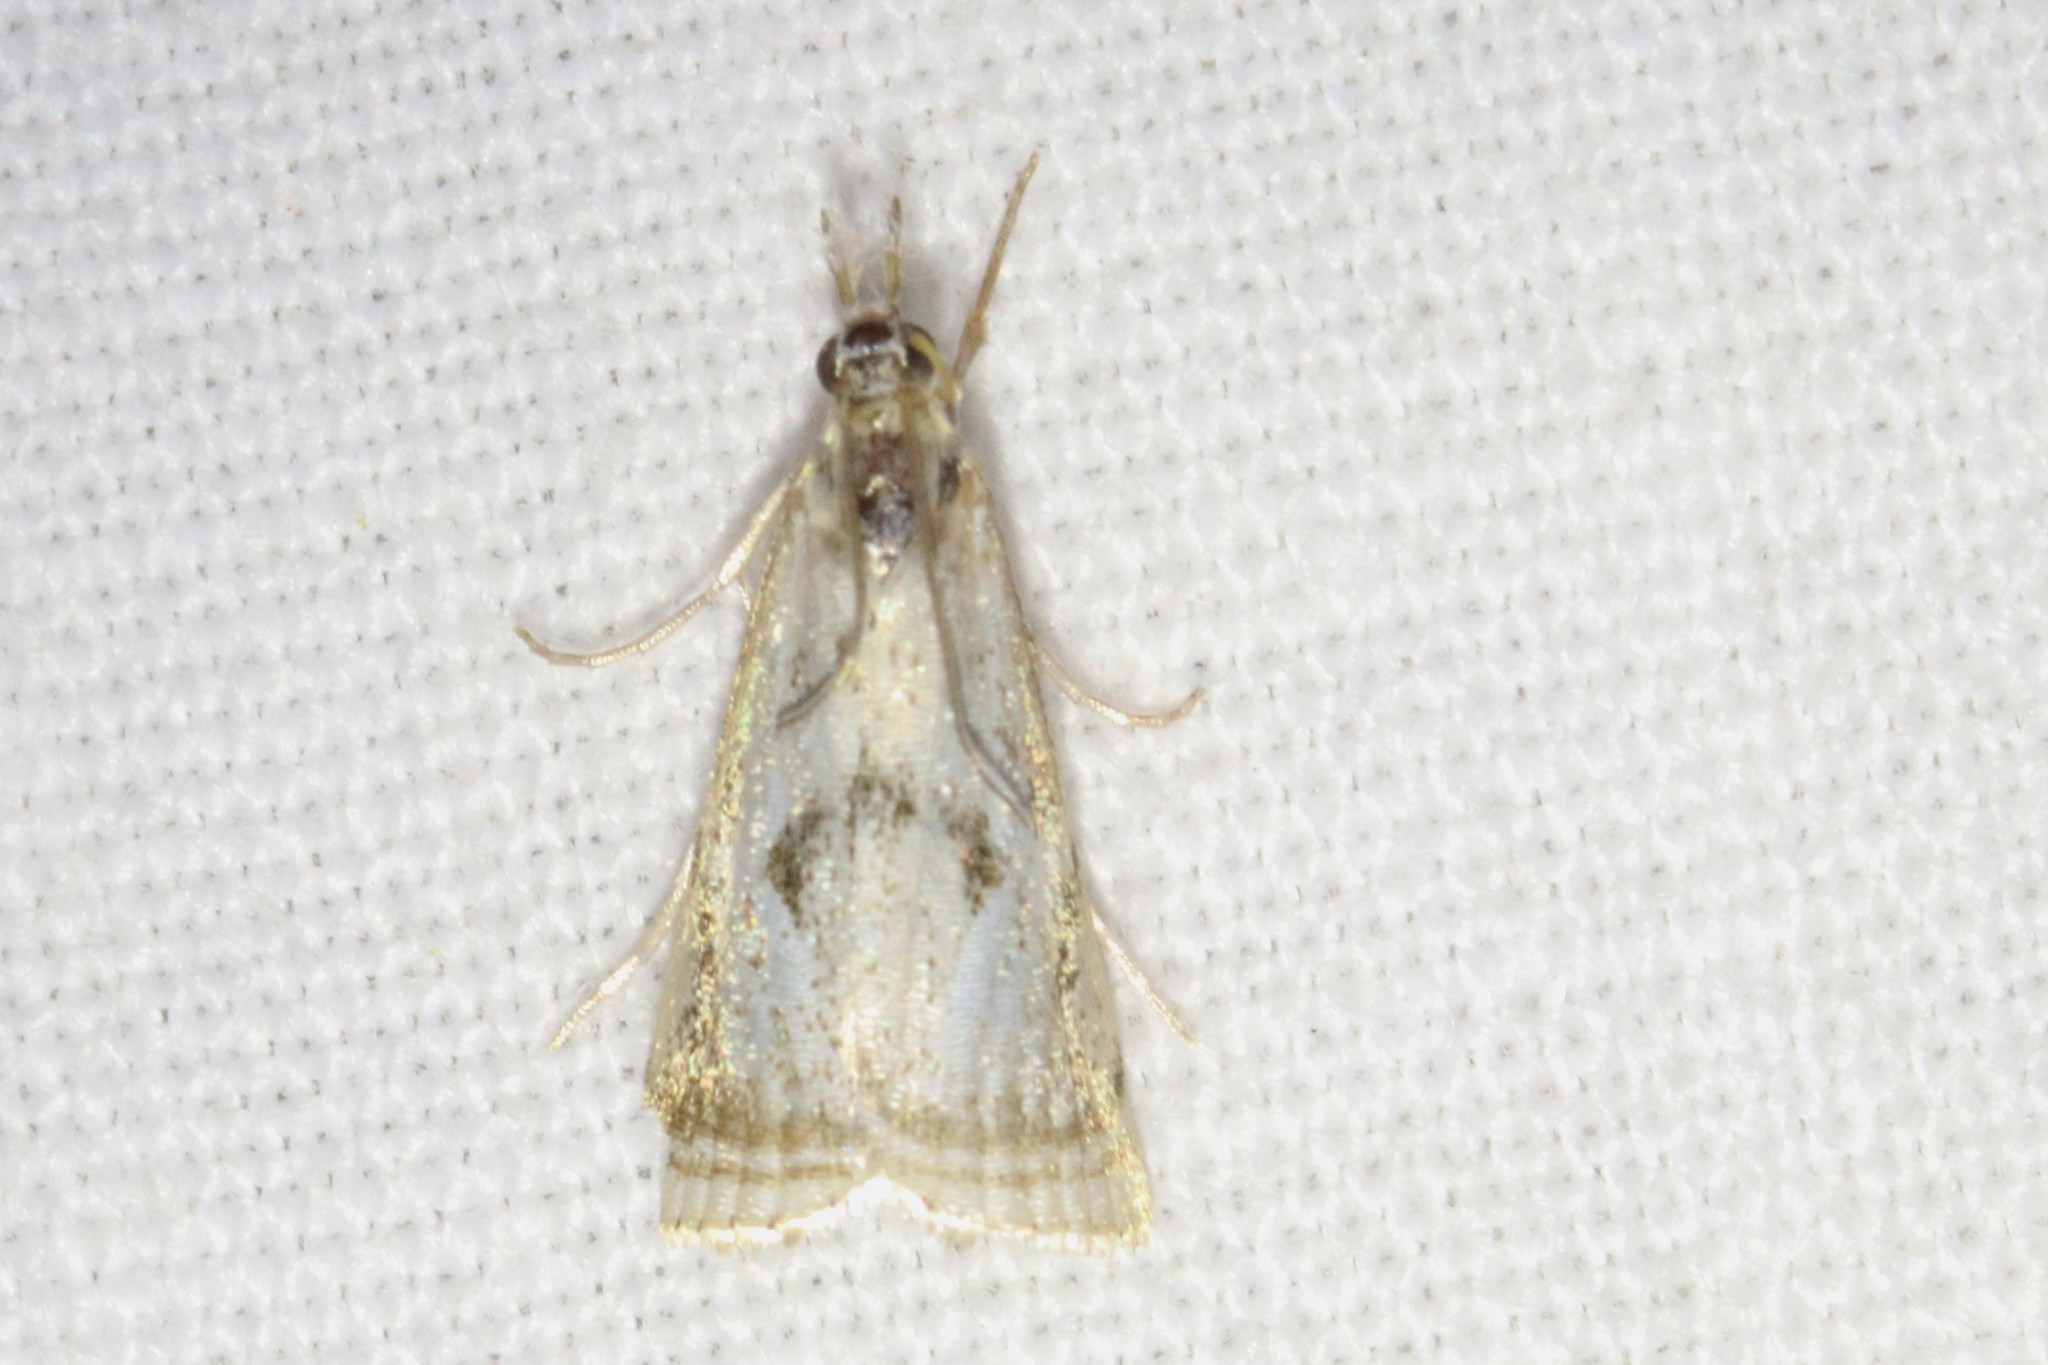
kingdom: Animalia
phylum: Arthropoda
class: Insecta
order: Lepidoptera
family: Crambidae
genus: Microcrambus
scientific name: Microcrambus elegans
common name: Elegant grass-veneer
